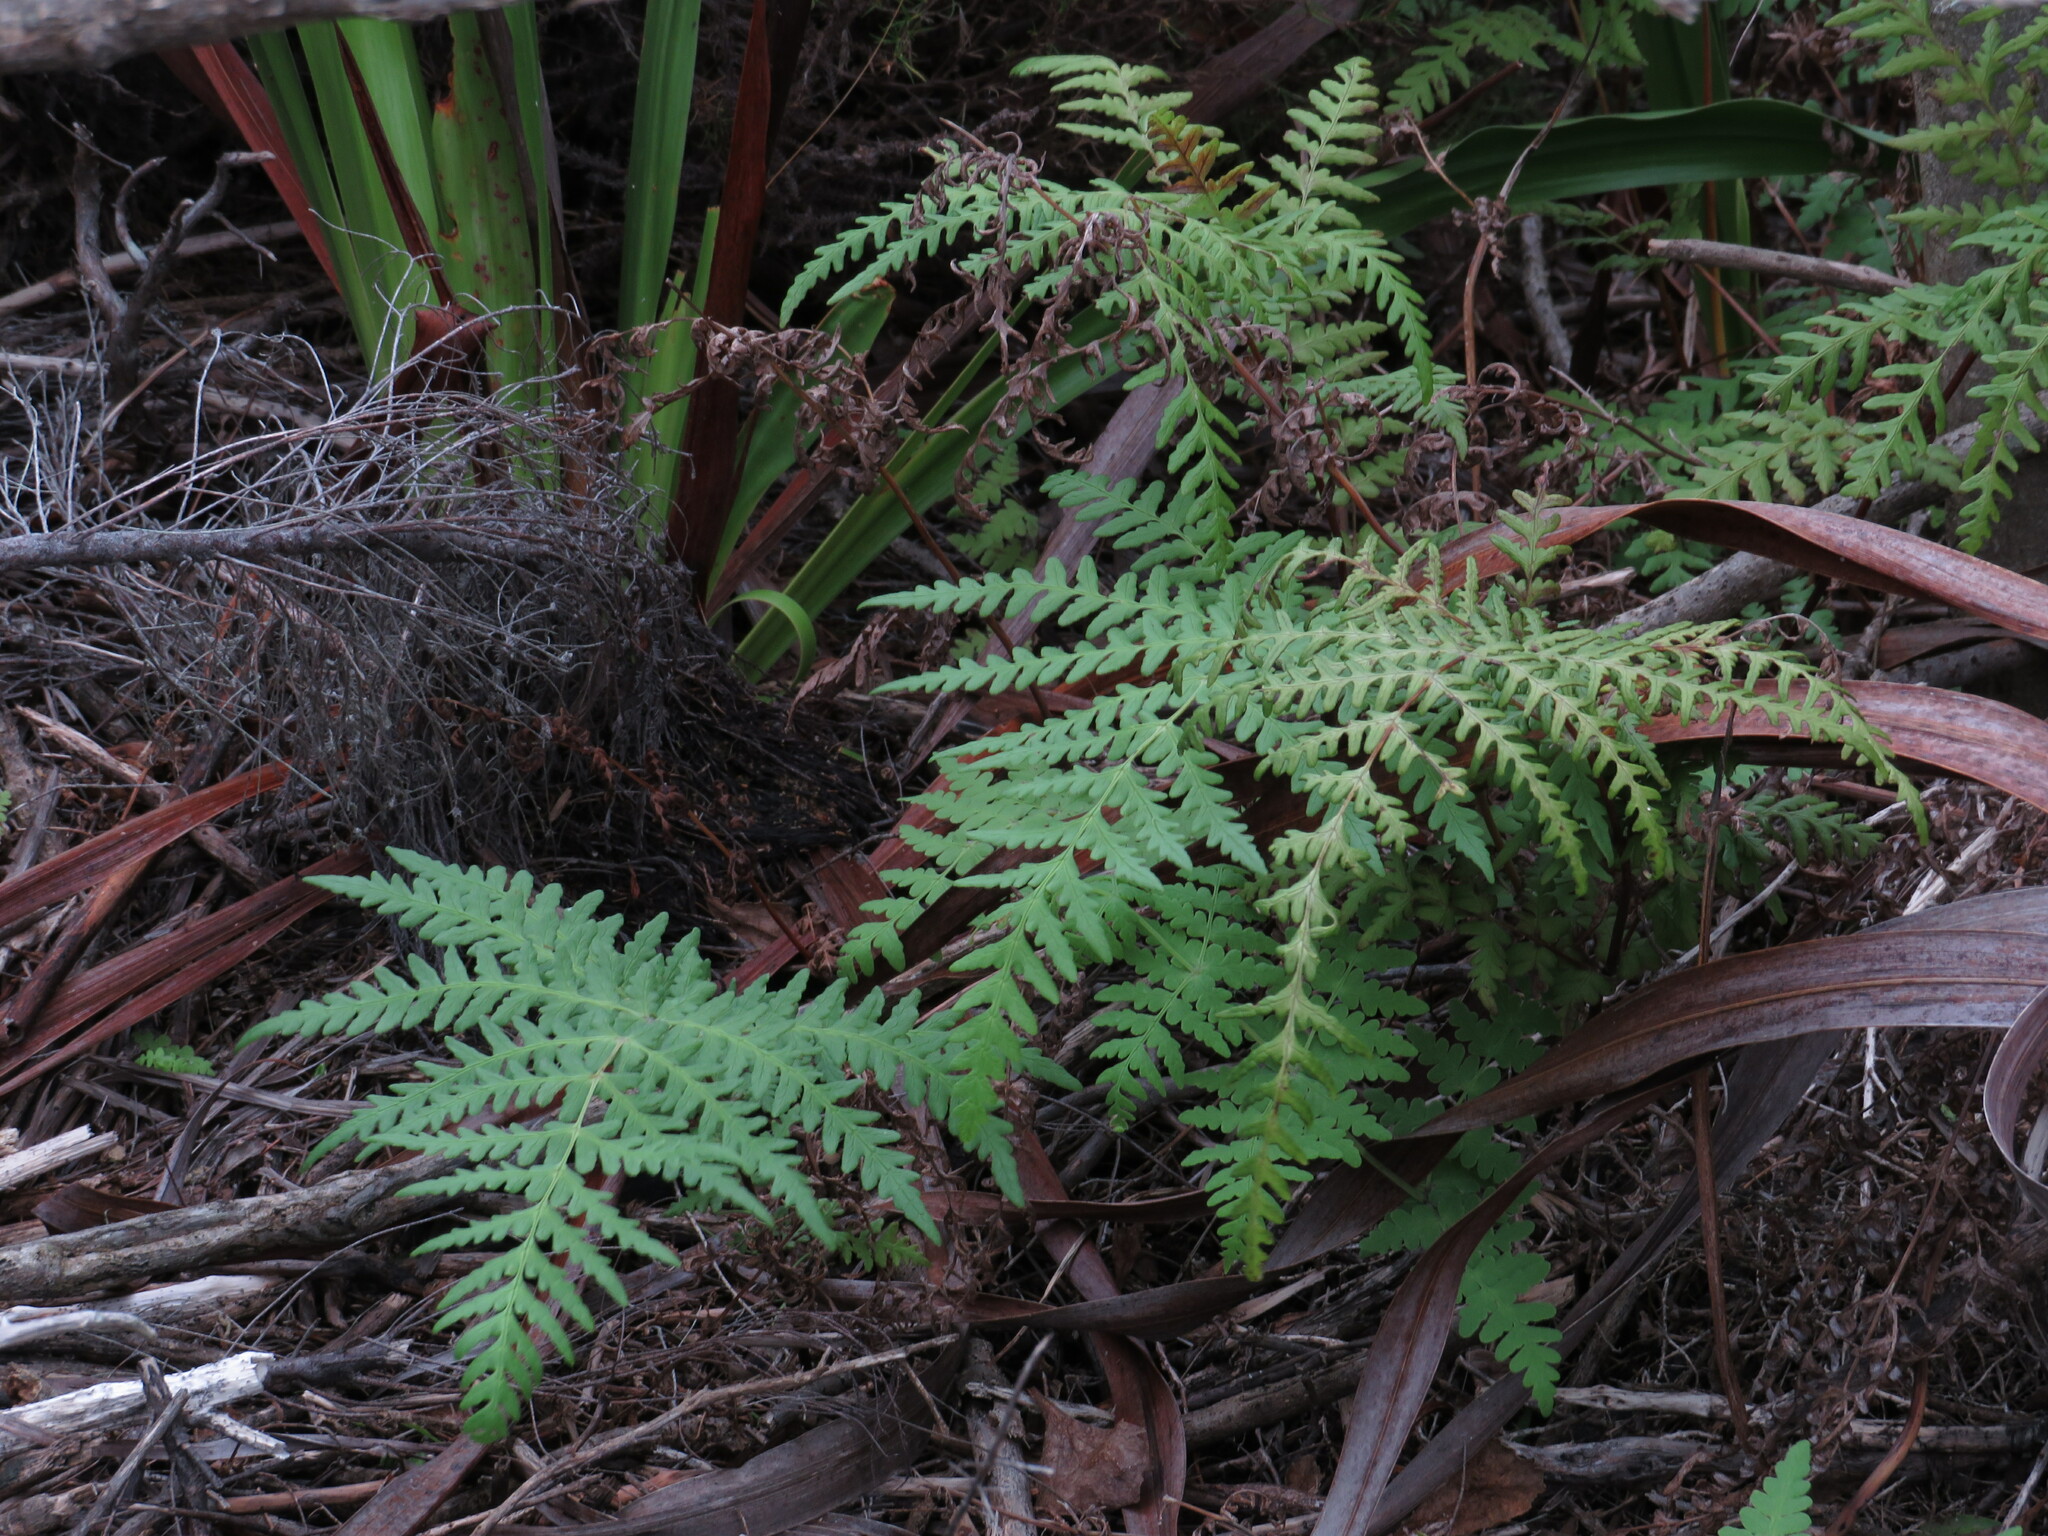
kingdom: Plantae
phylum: Tracheophyta
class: Polypodiopsida
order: Polypodiales
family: Dennstaedtiaceae
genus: Histiopteris
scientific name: Histiopteris incisa
